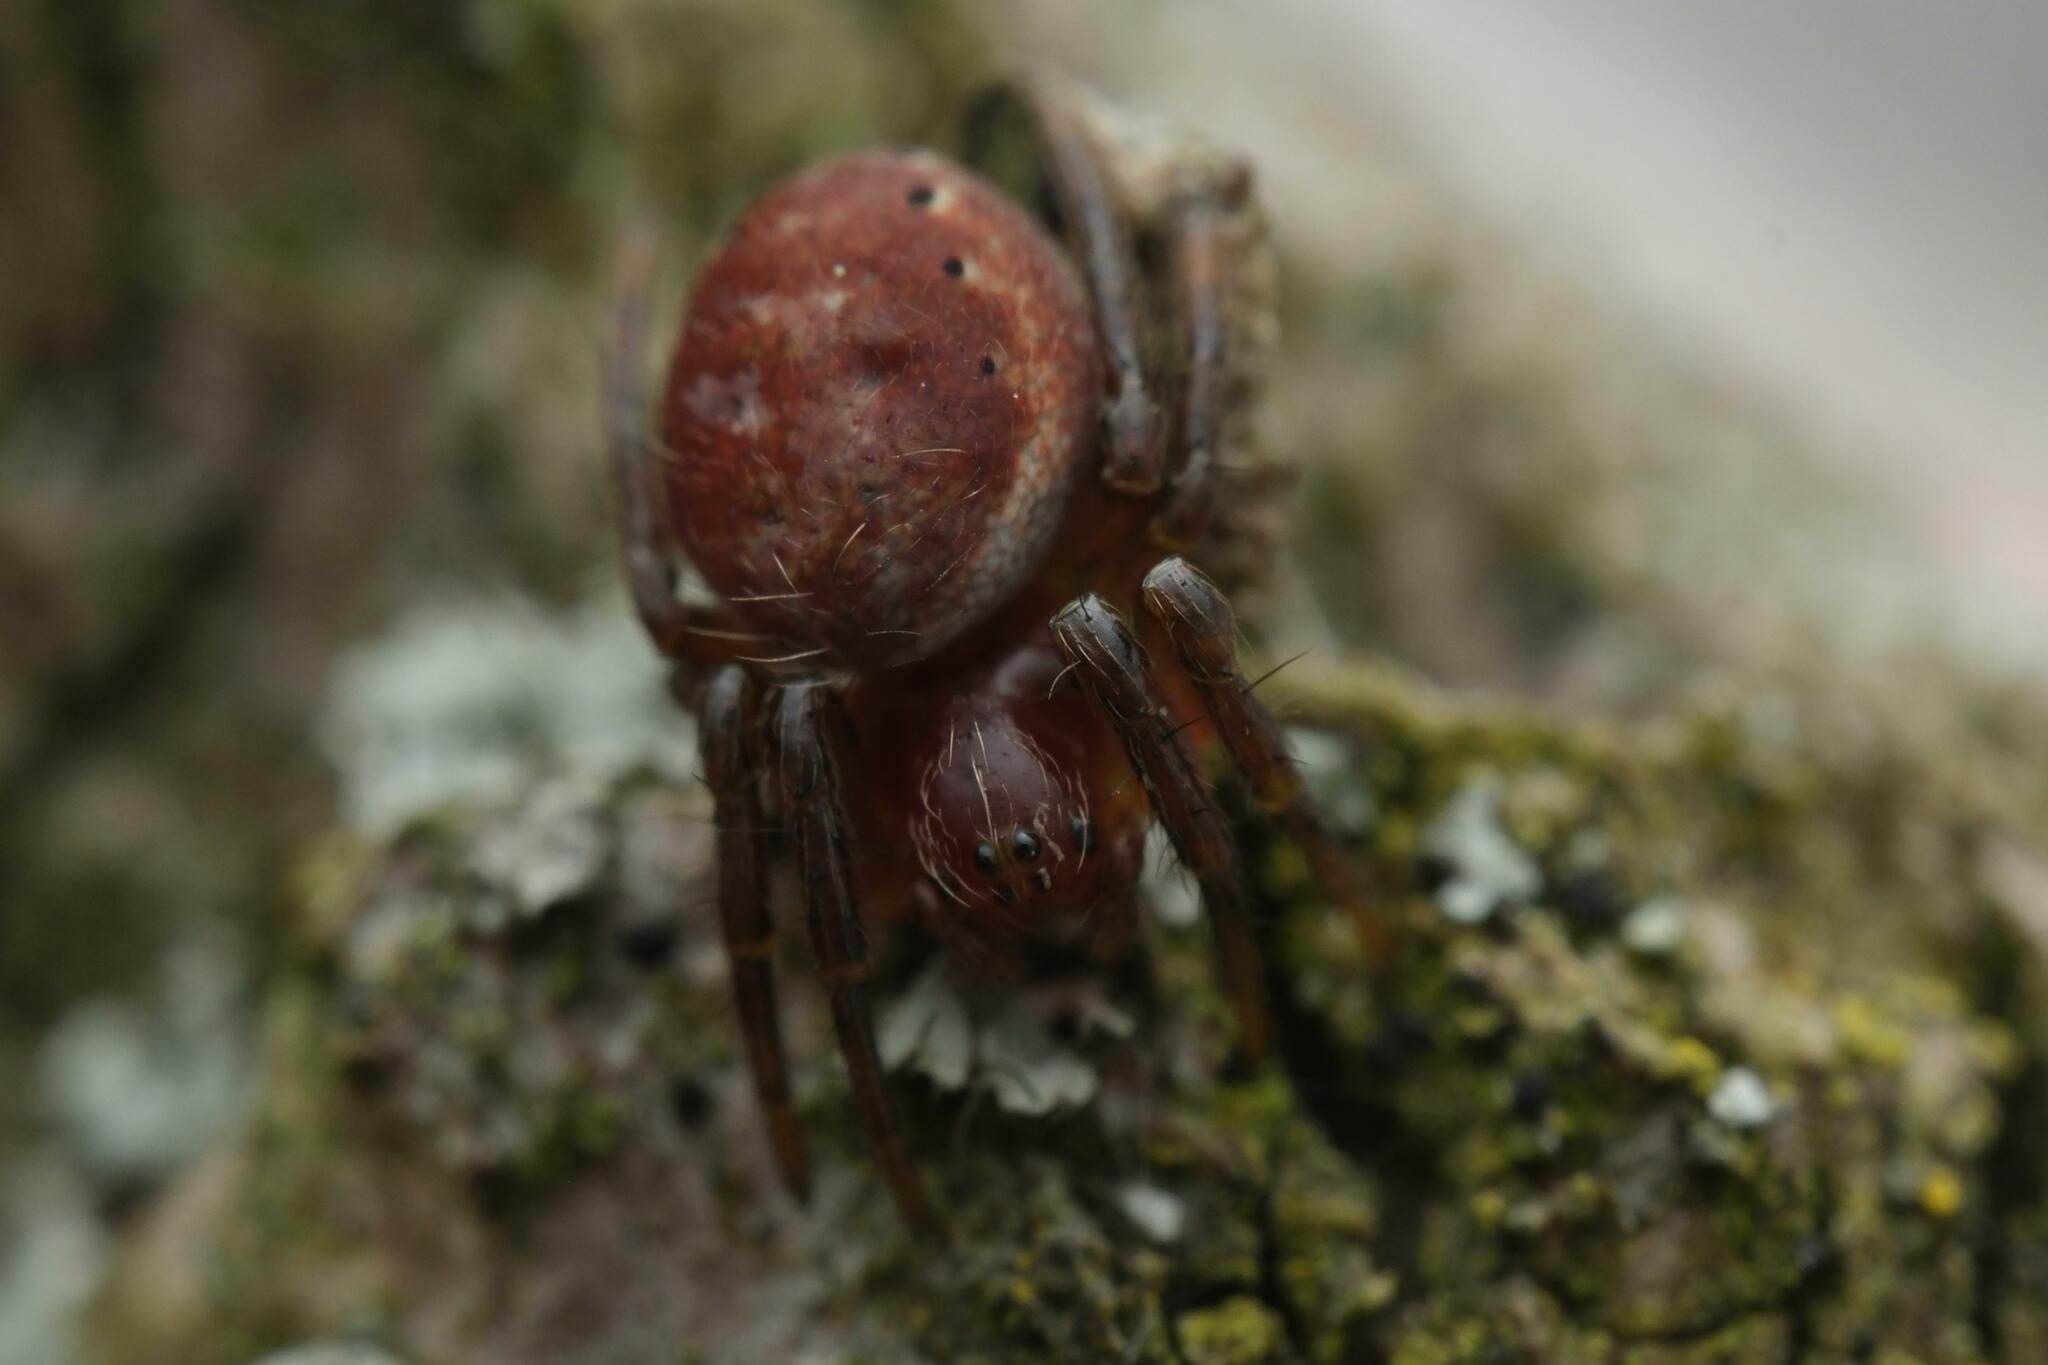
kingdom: Animalia
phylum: Arthropoda
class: Arachnida
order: Araneae
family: Araneidae
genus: Araniella
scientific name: Araniella
